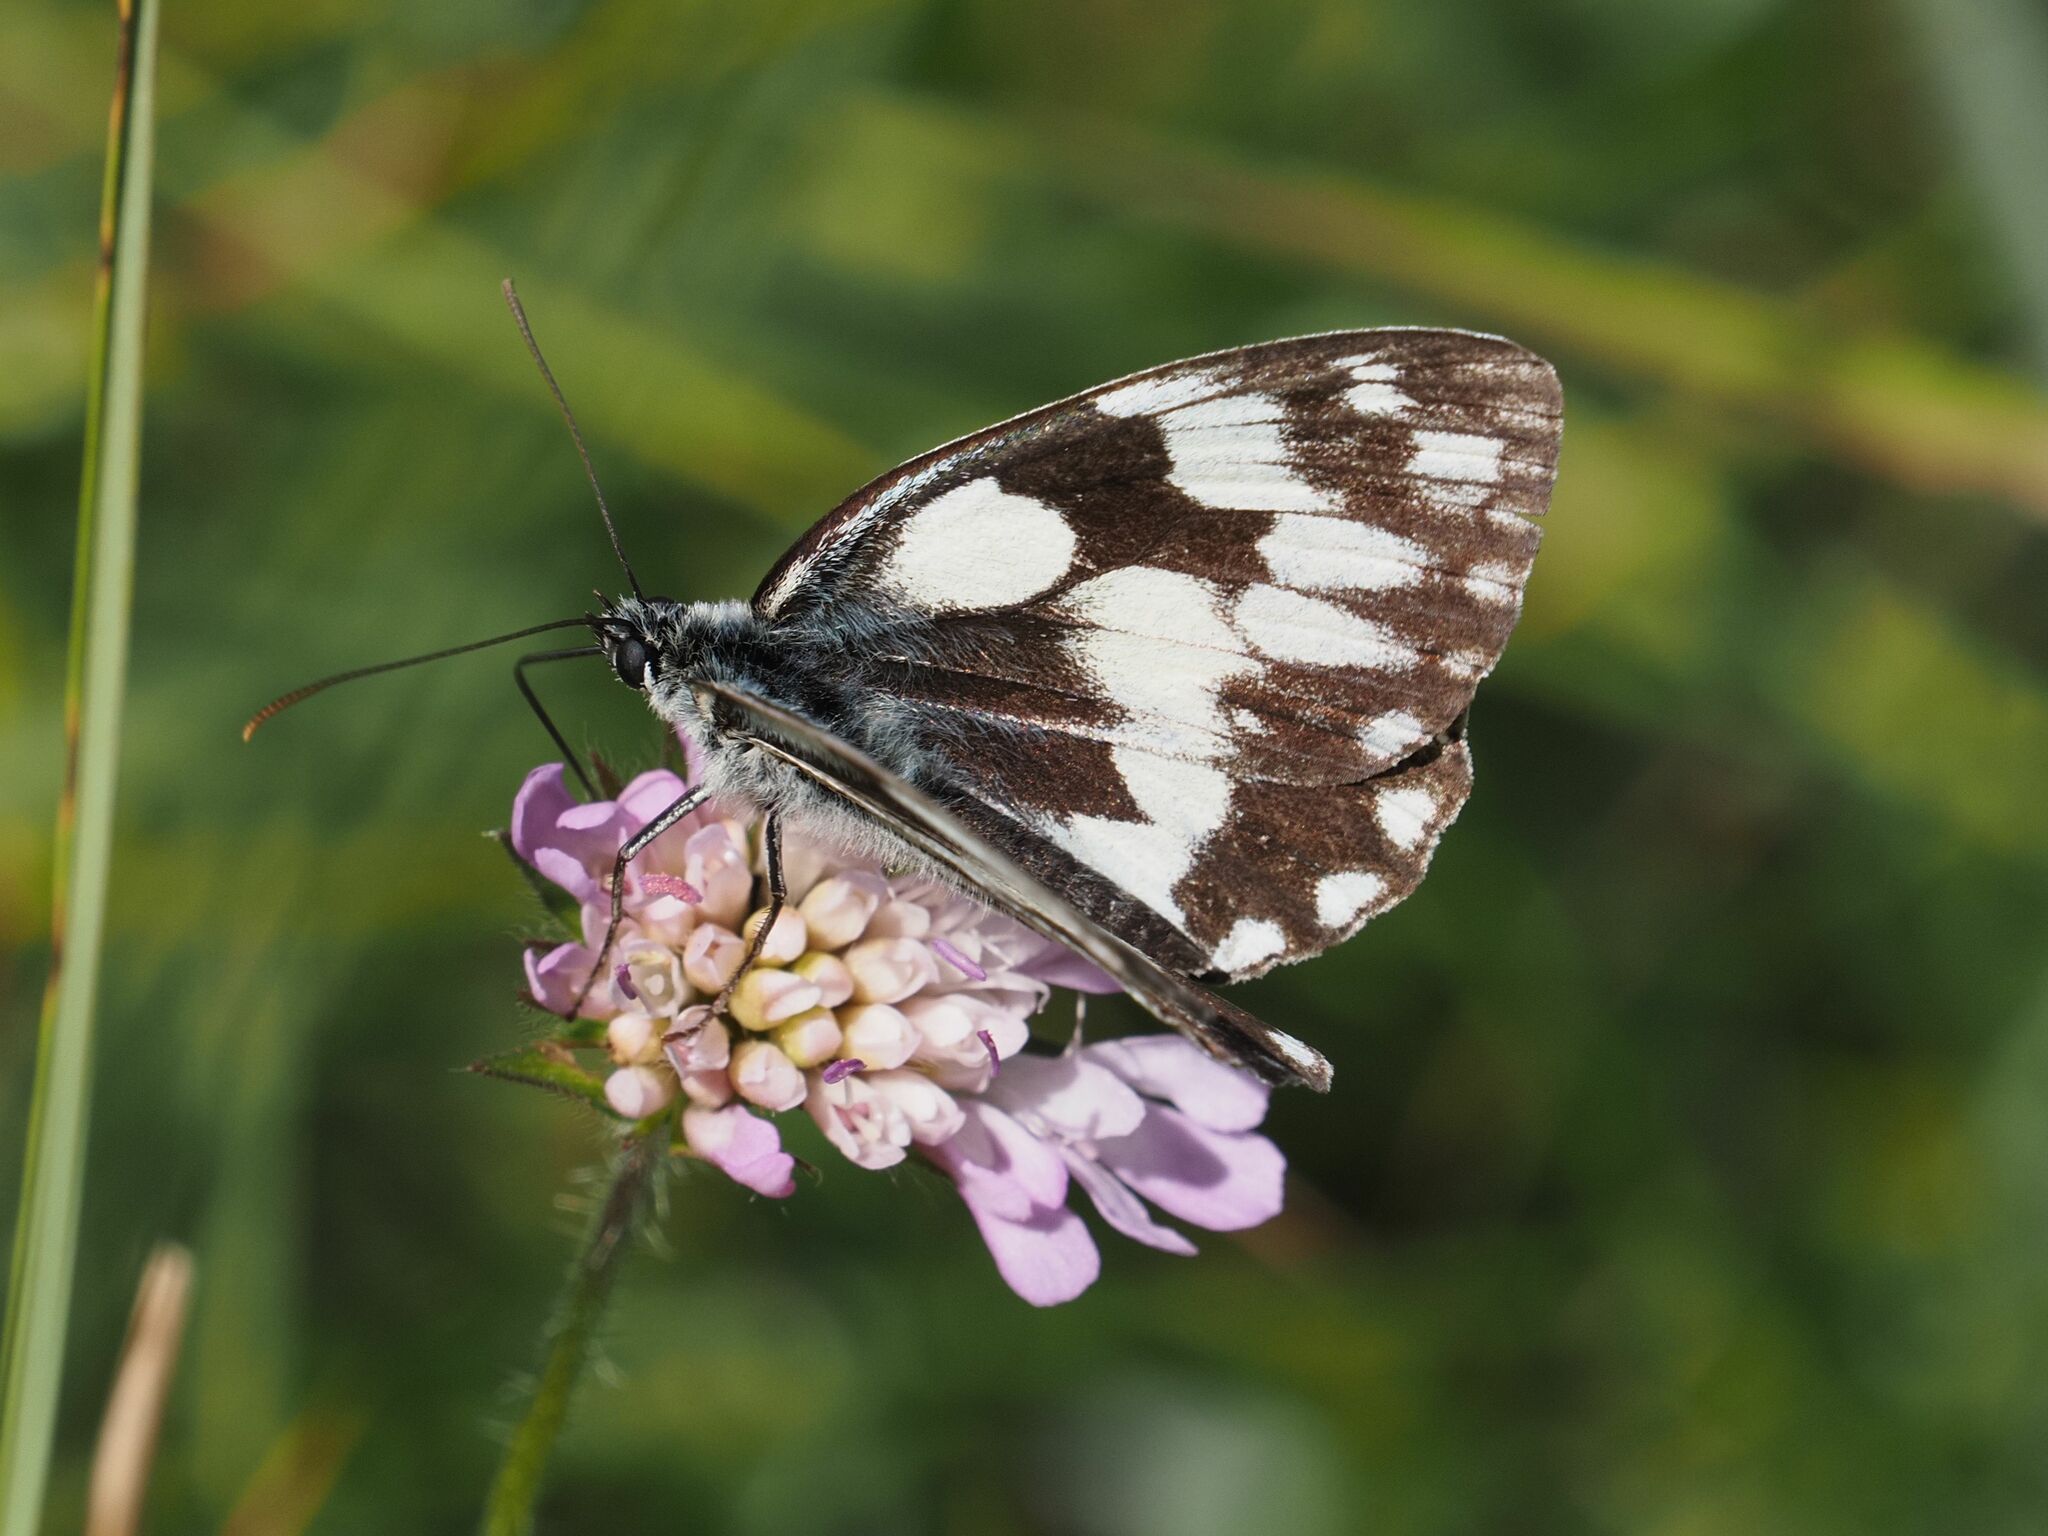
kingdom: Animalia
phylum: Arthropoda
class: Insecta
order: Lepidoptera
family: Nymphalidae
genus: Melanargia
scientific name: Melanargia galathea
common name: Marbled white
